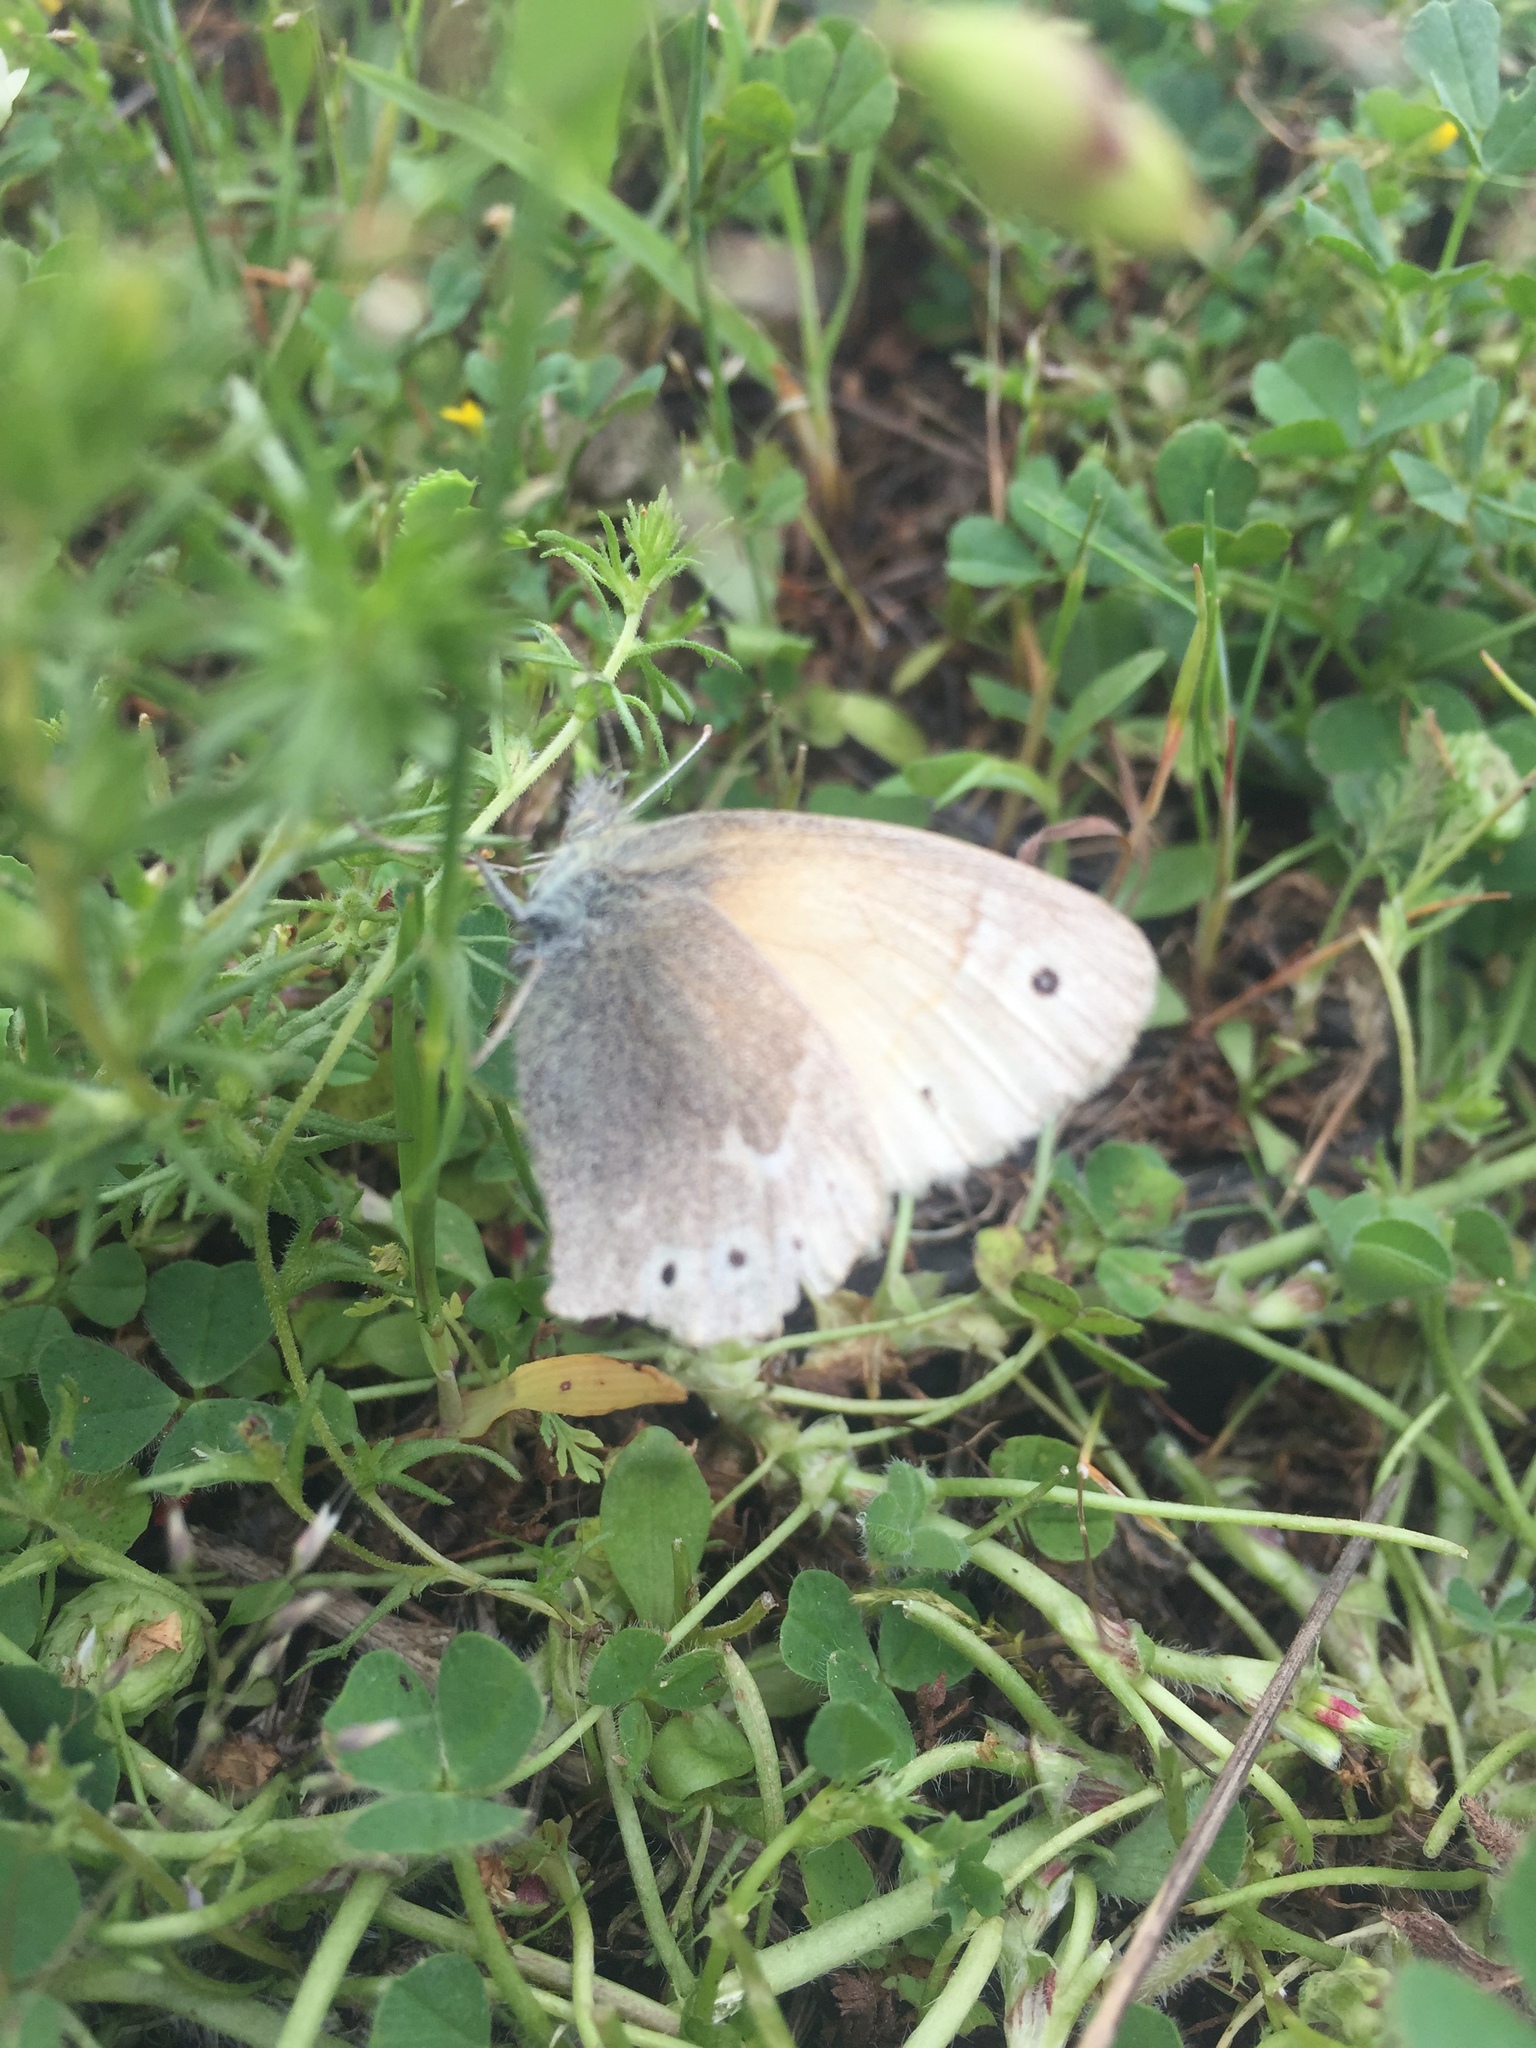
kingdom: Animalia
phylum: Arthropoda
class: Insecta
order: Lepidoptera
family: Nymphalidae
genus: Coenonympha
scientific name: Coenonympha california
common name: Common ringlet
